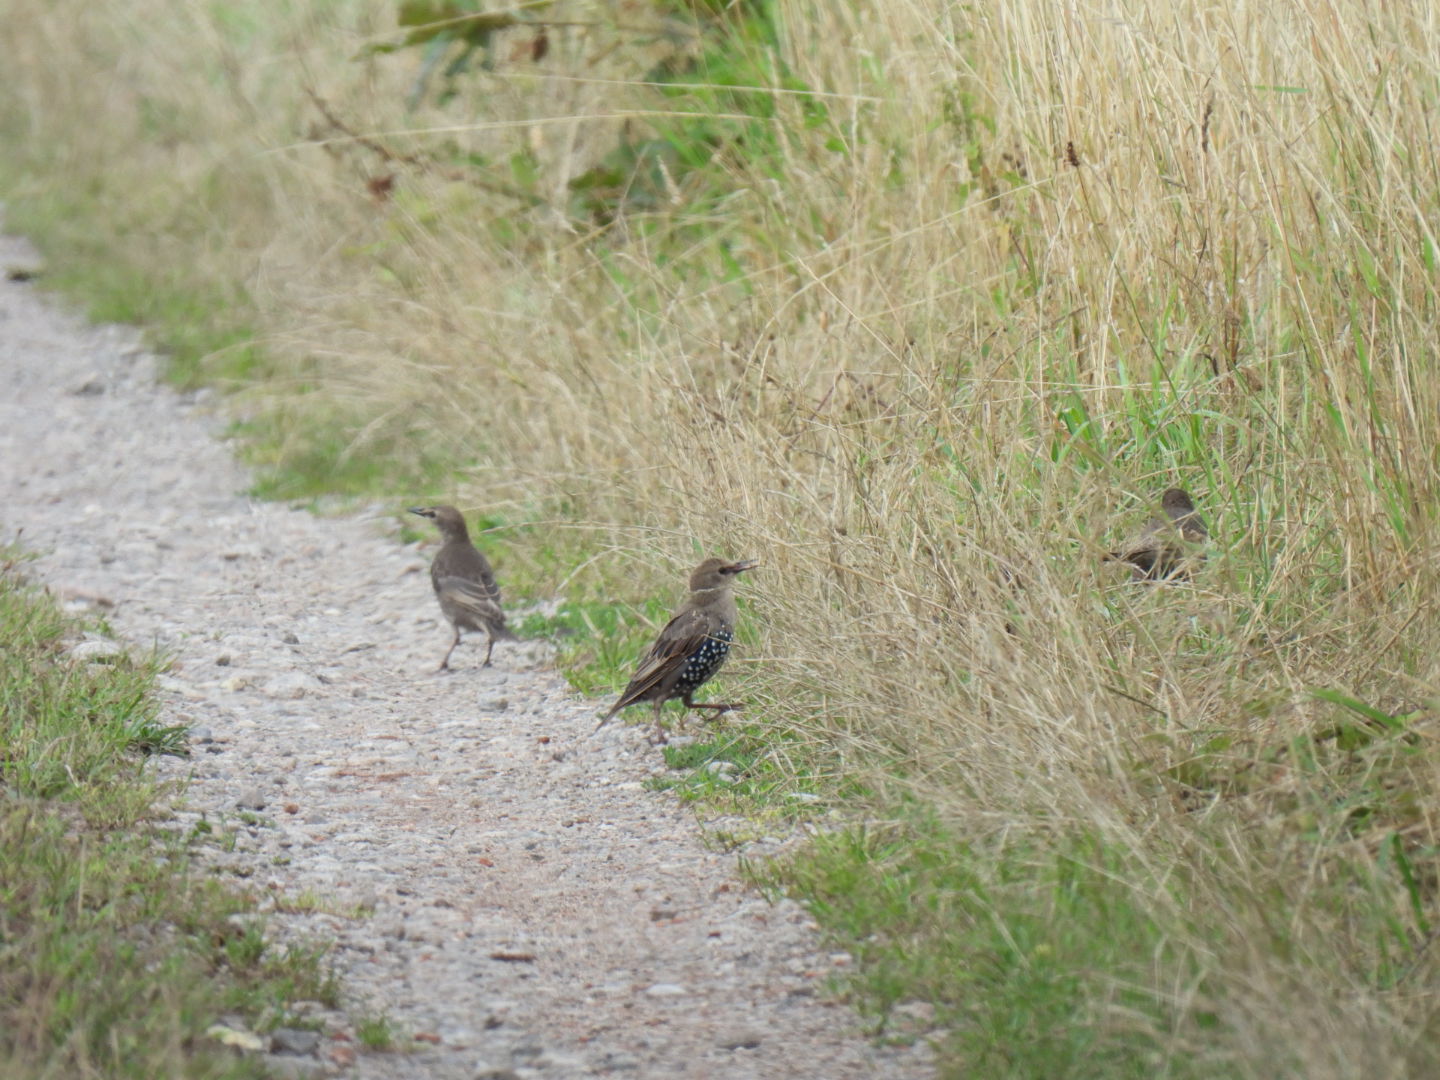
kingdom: Animalia
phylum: Chordata
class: Aves
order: Passeriformes
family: Sturnidae
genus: Sturnus
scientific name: Sturnus vulgaris
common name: Common starling
